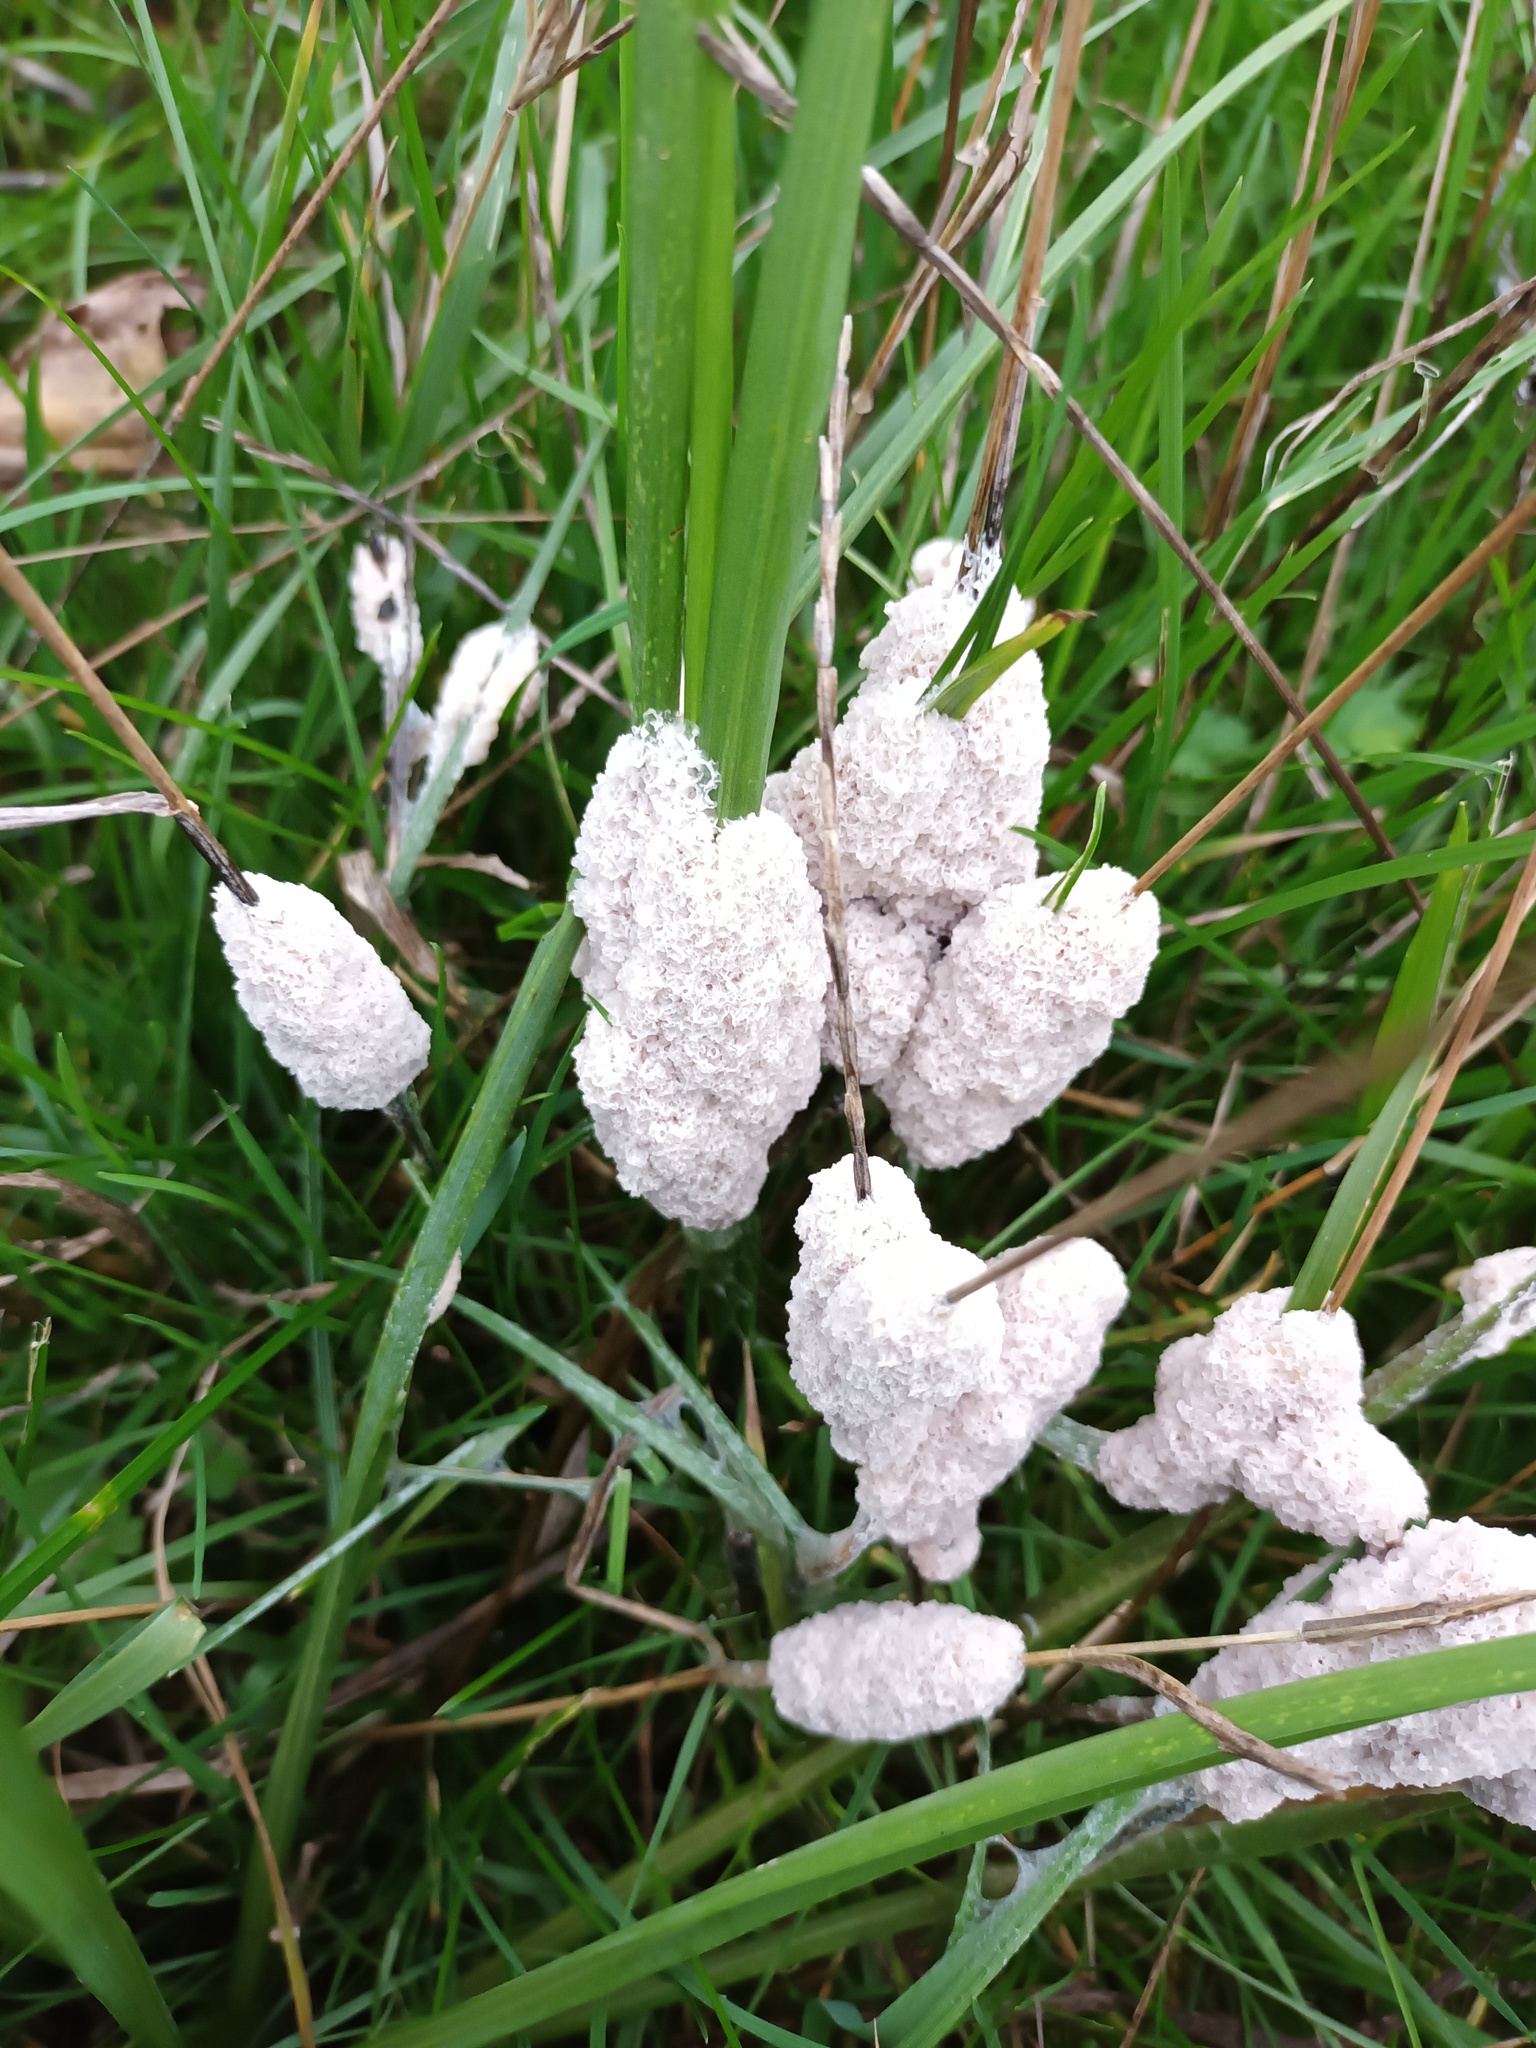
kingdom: Protozoa
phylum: Mycetozoa
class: Myxomycetes
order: Physarales
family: Physaraceae
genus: Didymium
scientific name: Didymium
